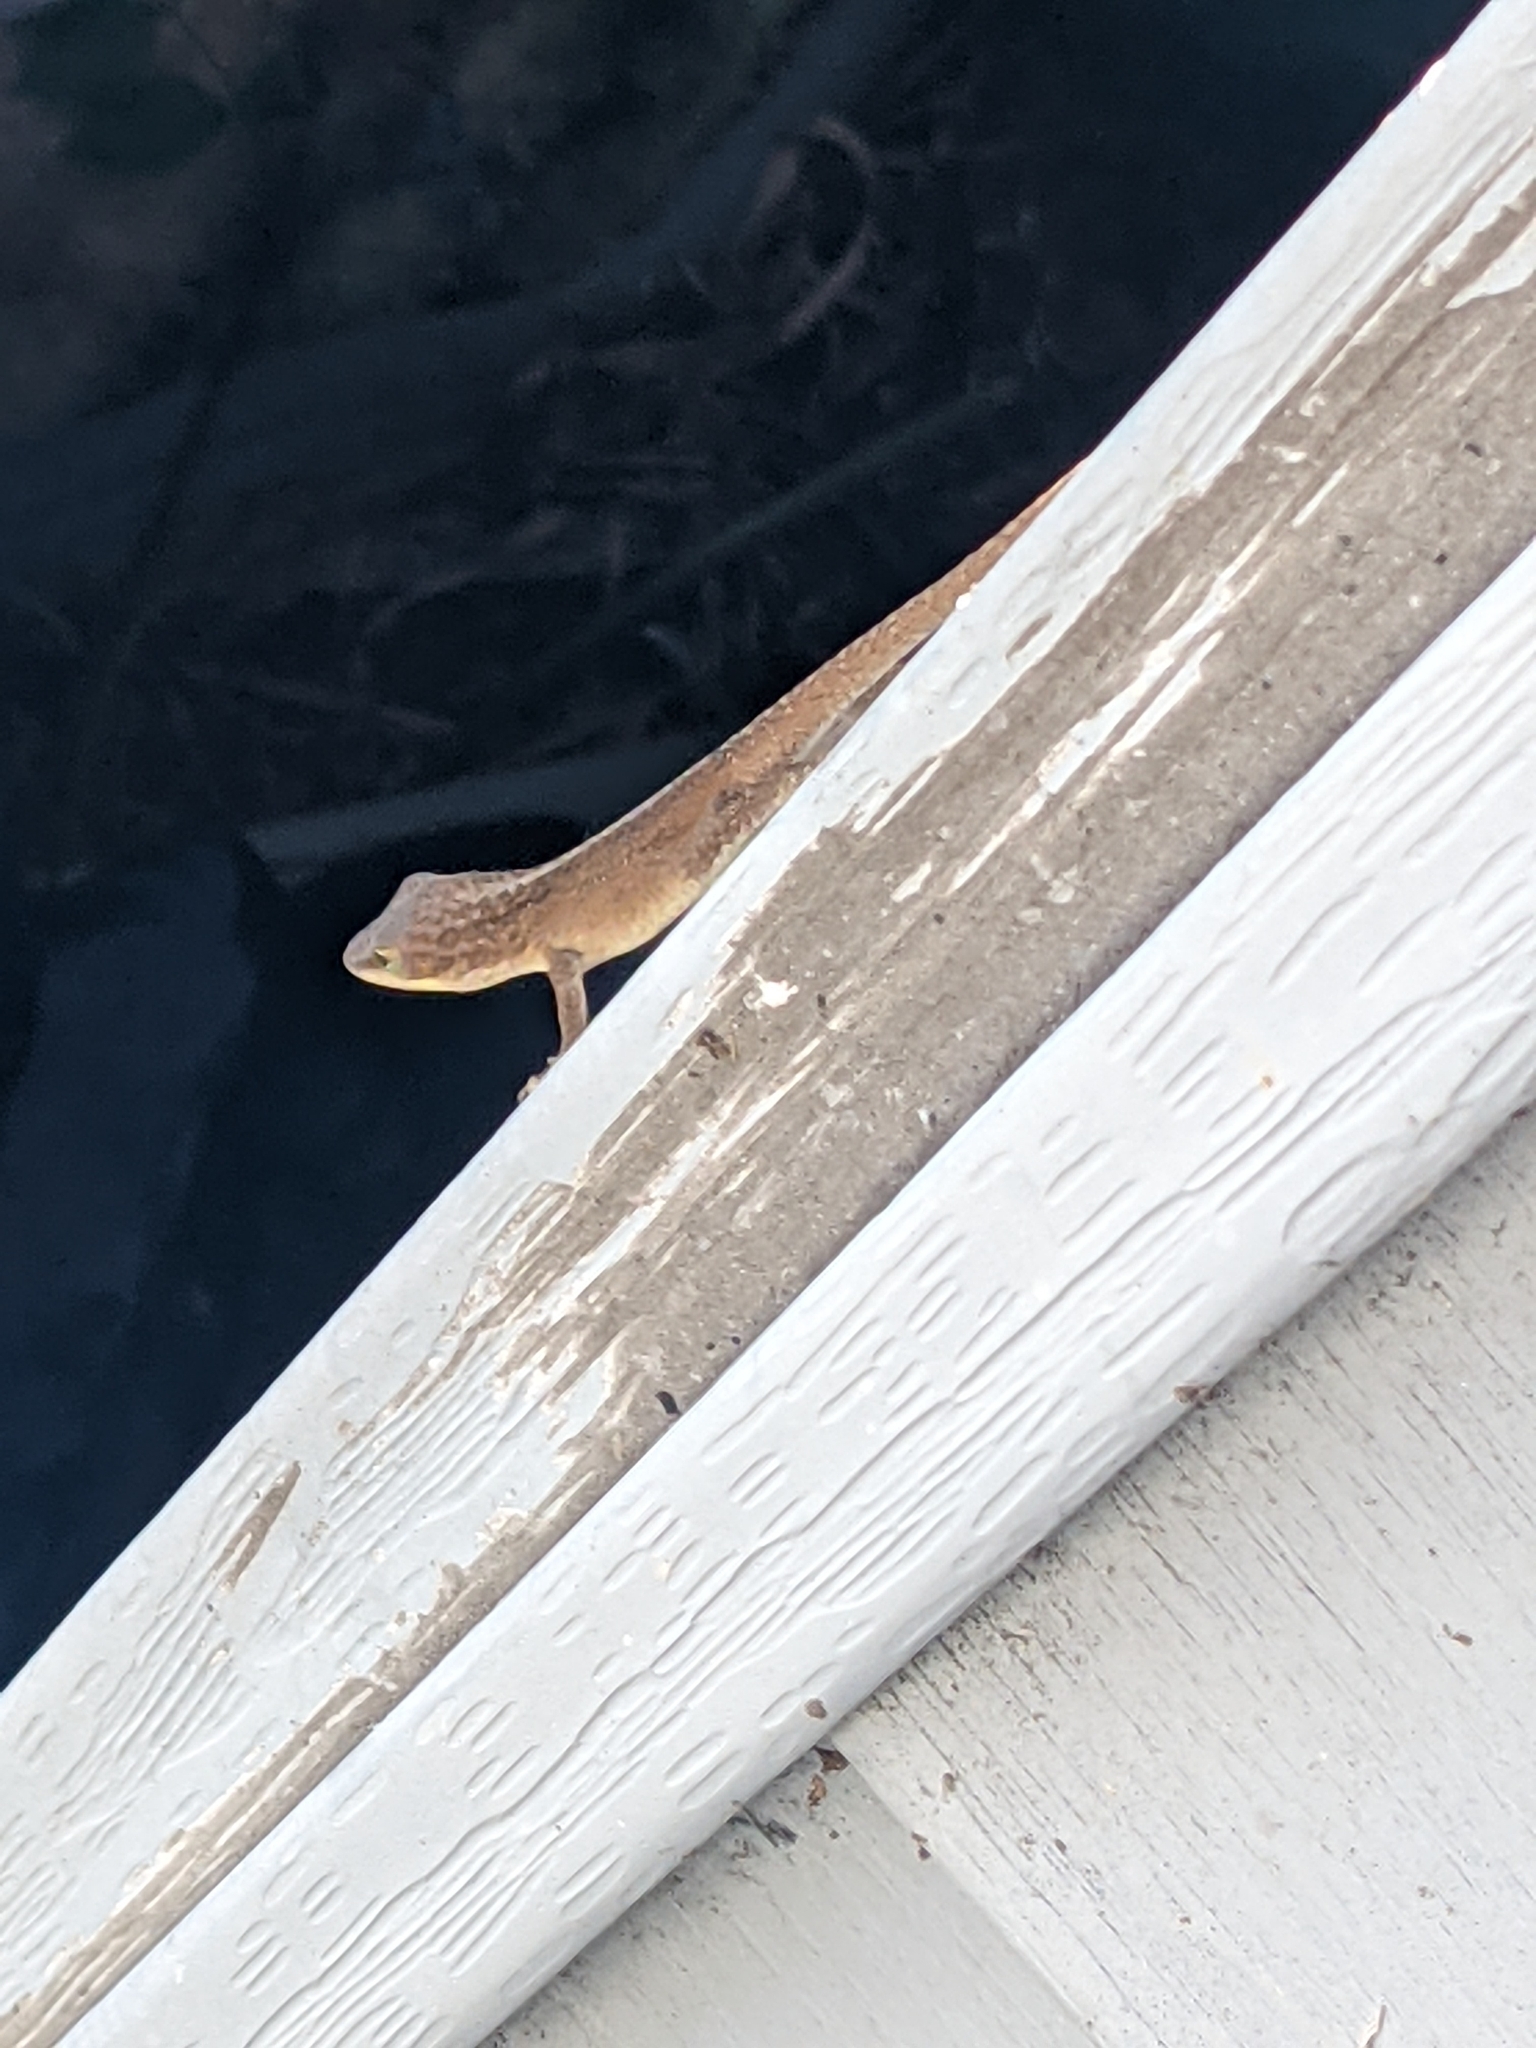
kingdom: Animalia
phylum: Chordata
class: Squamata
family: Dactyloidae
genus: Anolis
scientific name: Anolis carolinensis
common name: Green anole
